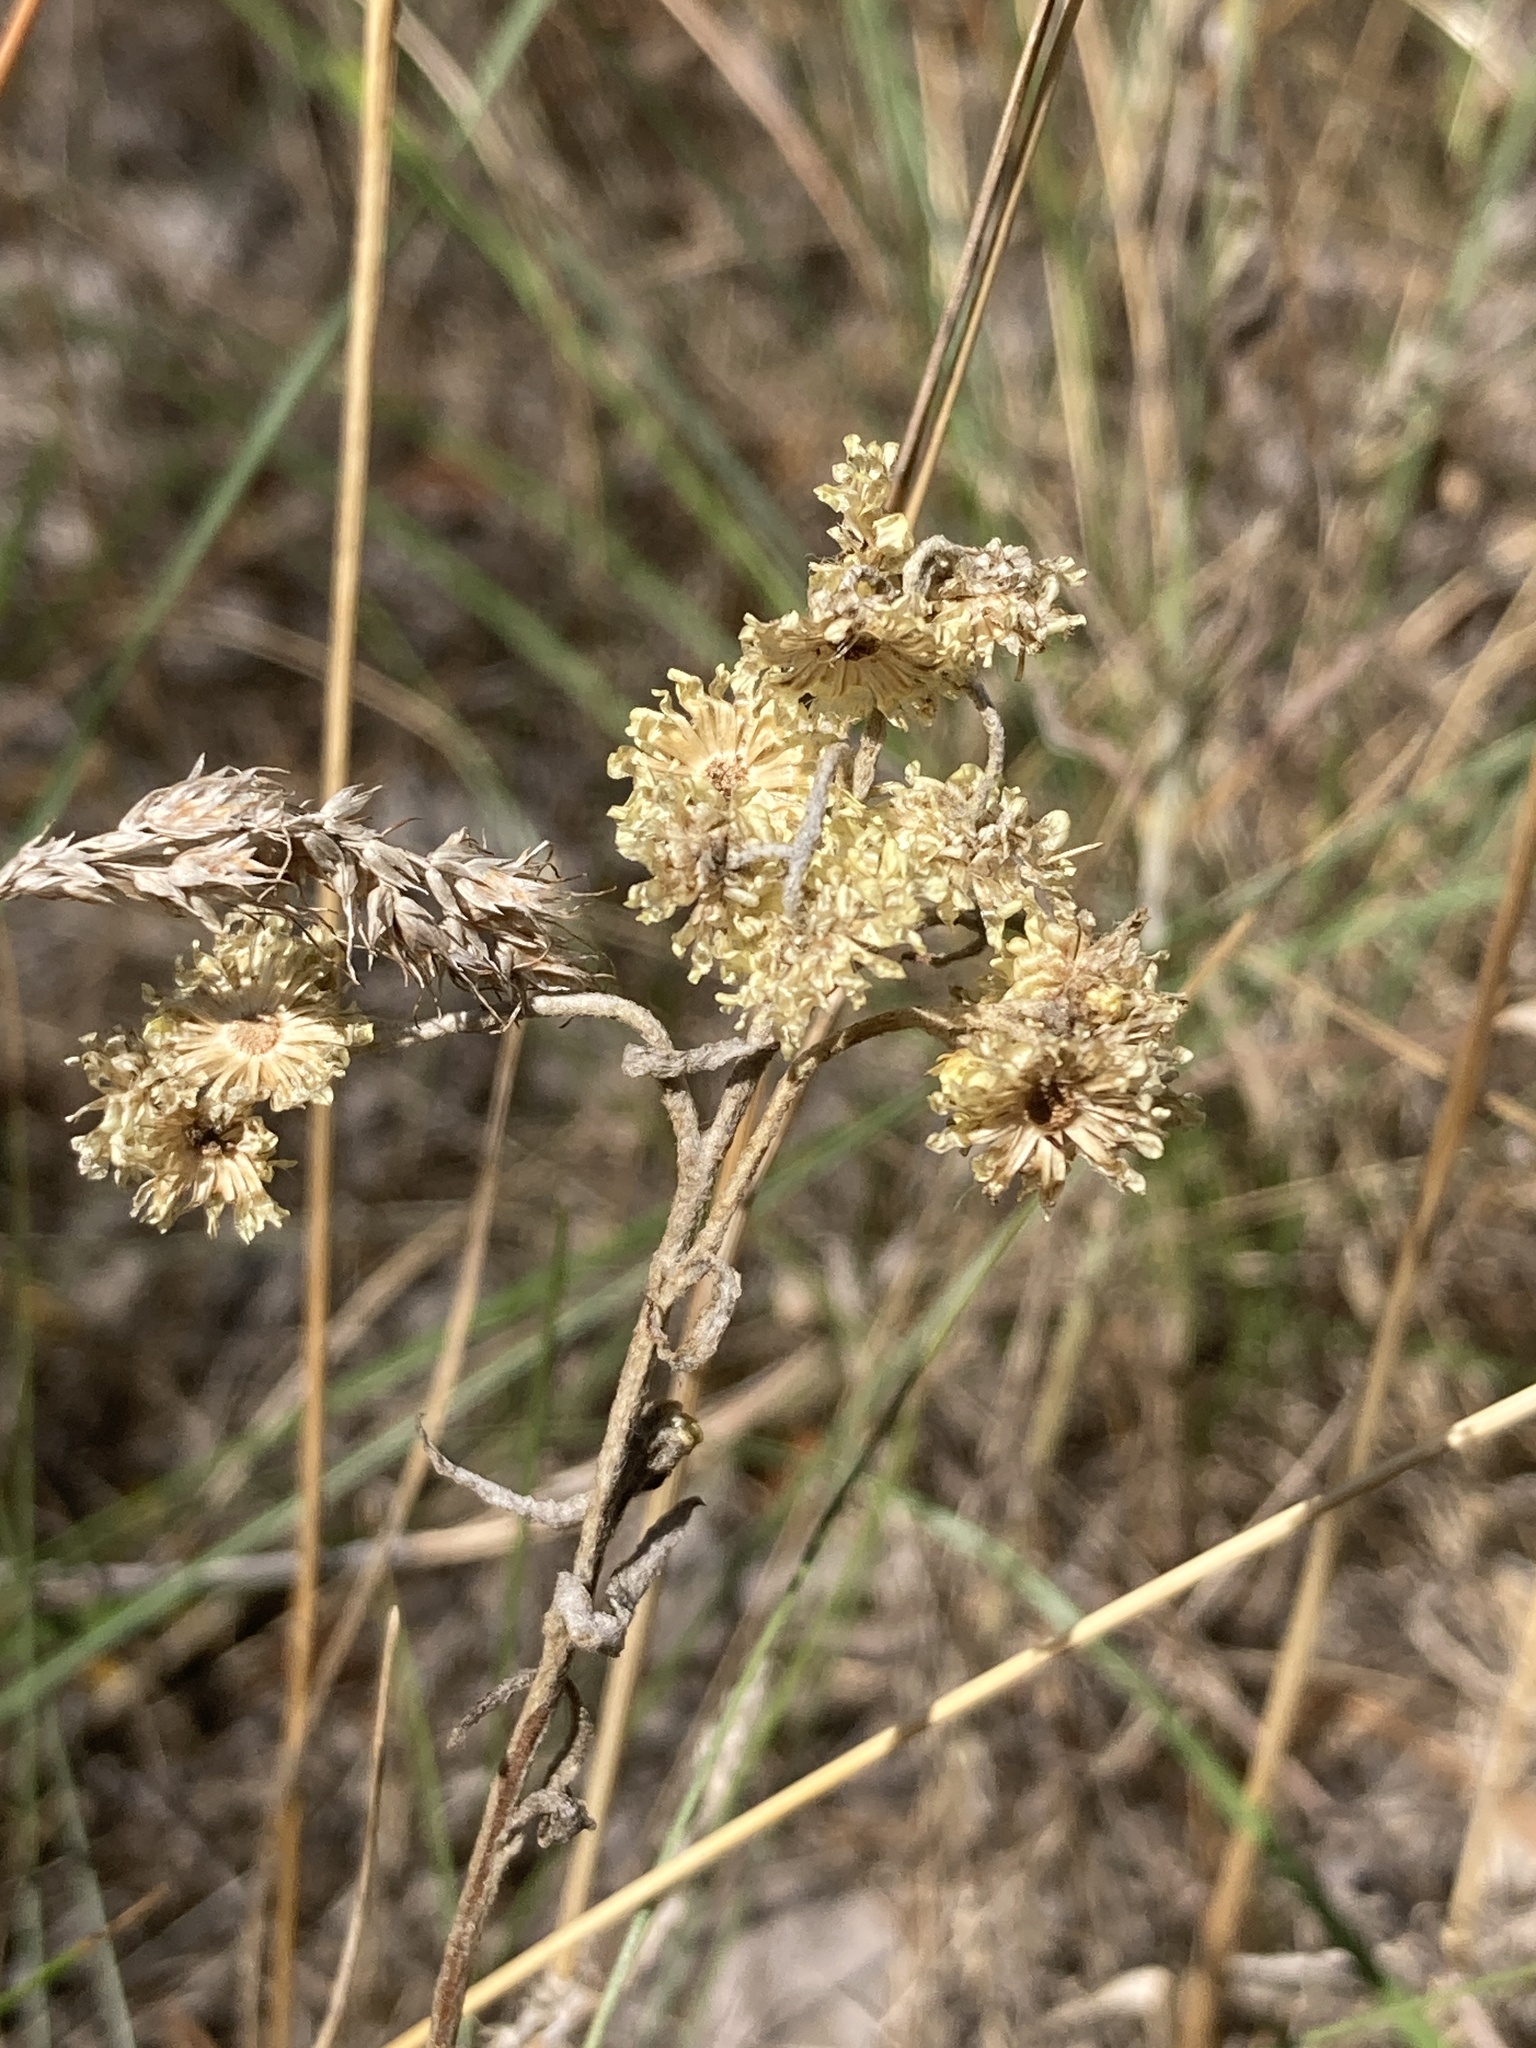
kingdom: Plantae
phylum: Tracheophyta
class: Magnoliopsida
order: Asterales
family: Asteraceae
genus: Helichrysum
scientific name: Helichrysum arenarium
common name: Strawflower
